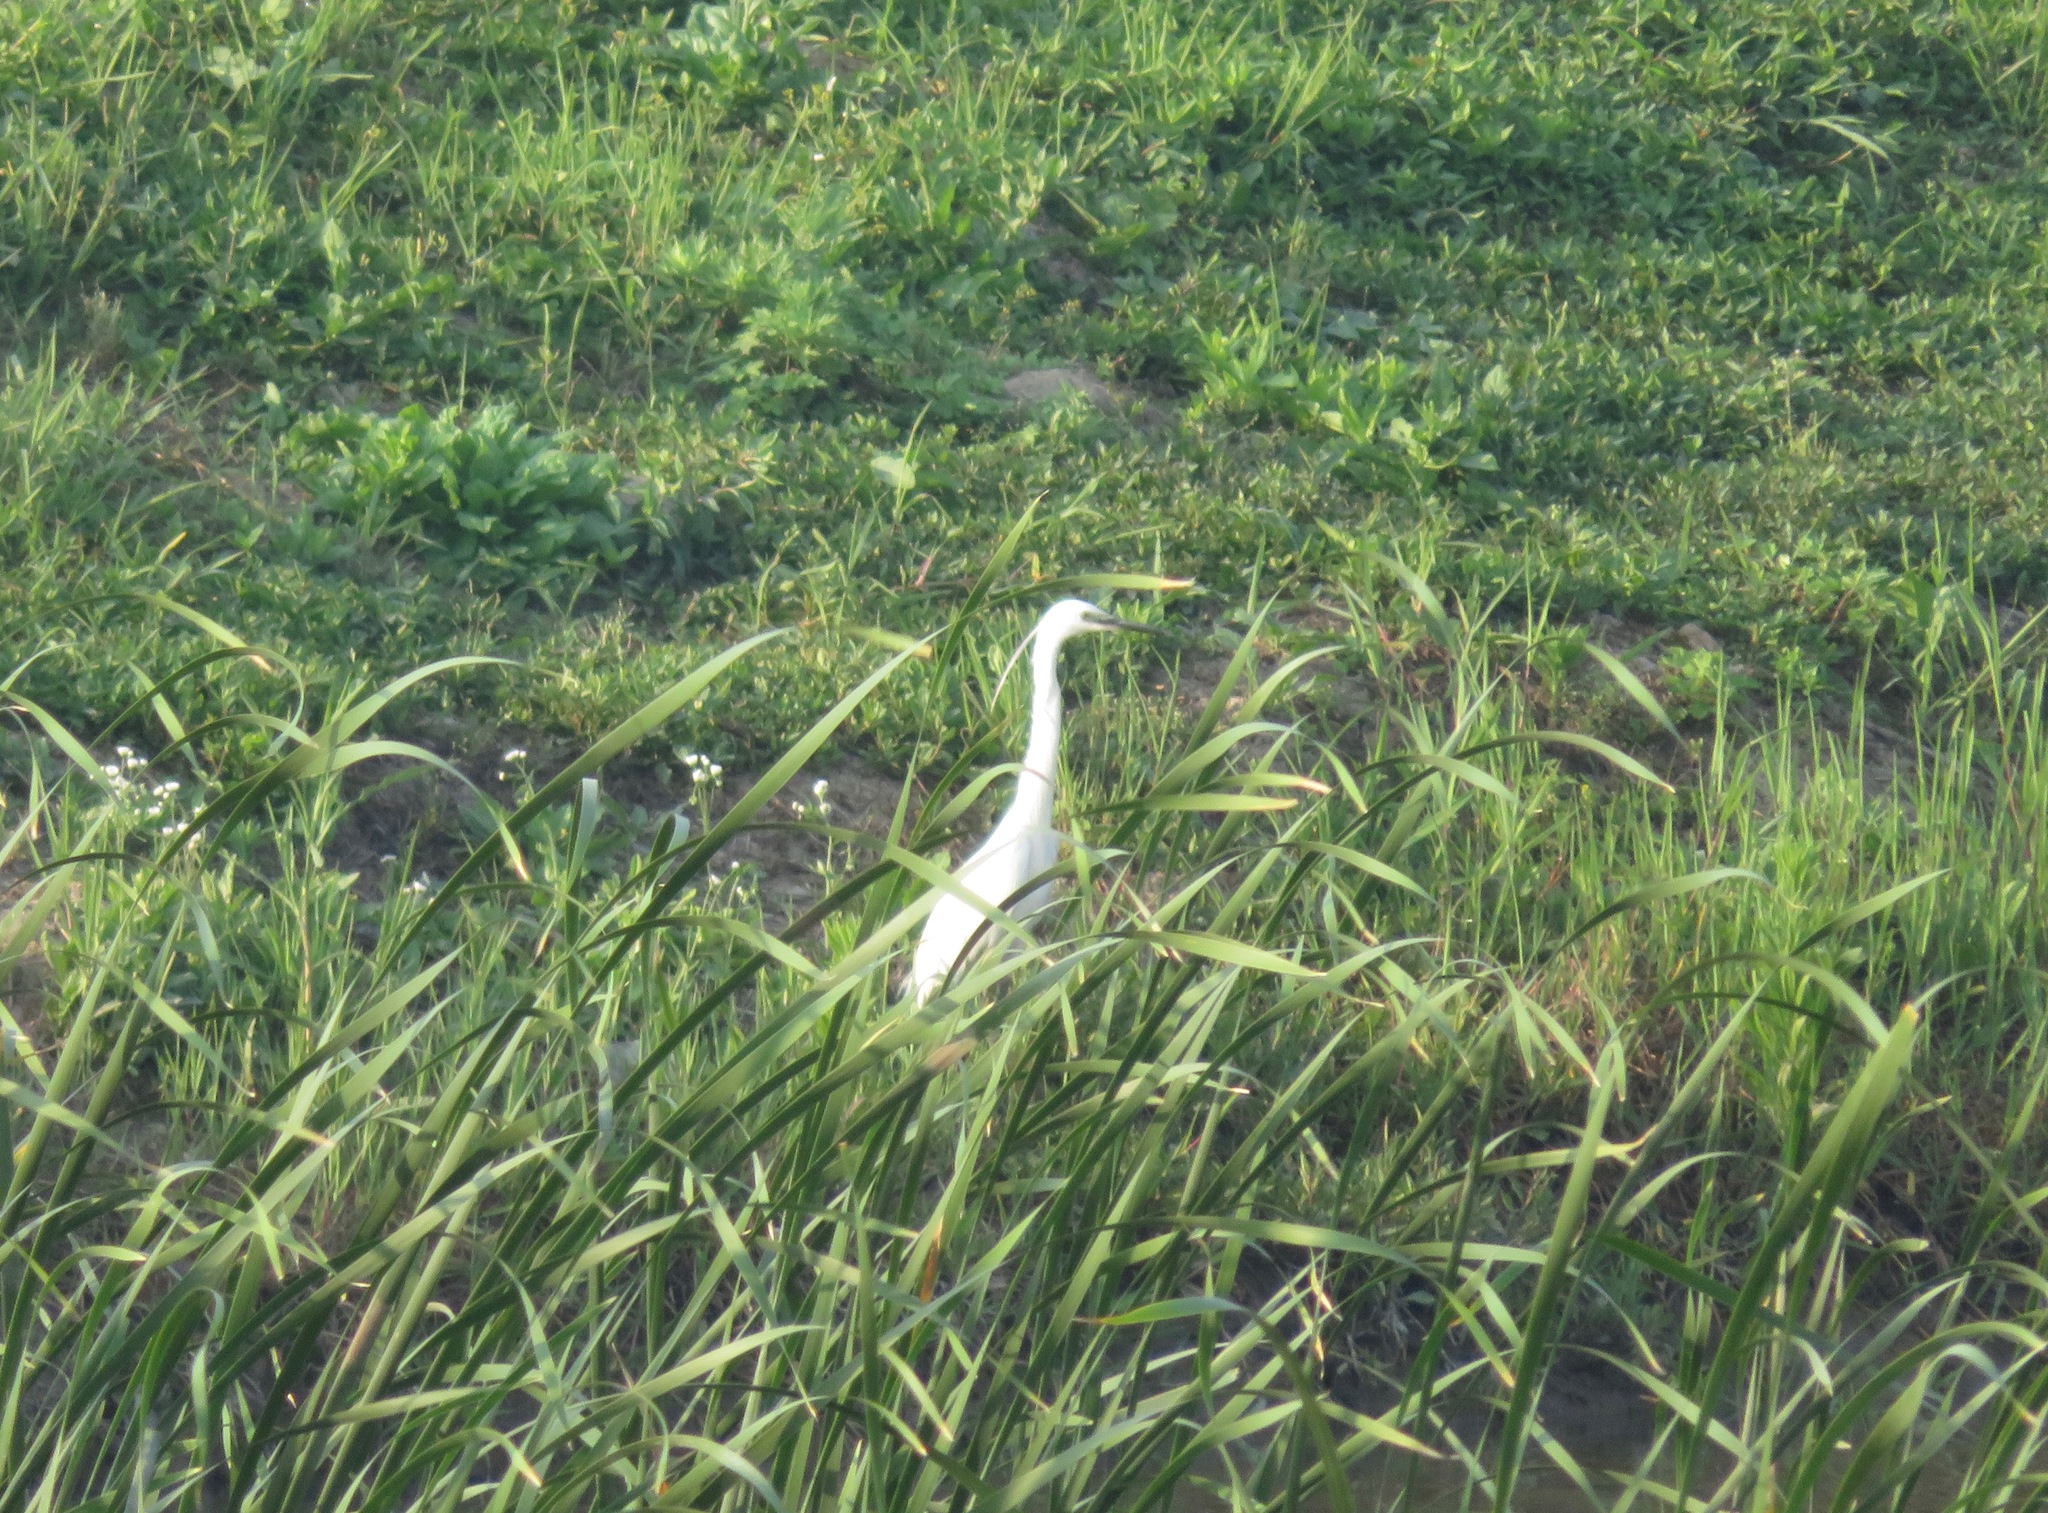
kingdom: Animalia
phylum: Chordata
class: Aves
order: Pelecaniformes
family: Ardeidae
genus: Egretta
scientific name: Egretta garzetta
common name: Little egret
